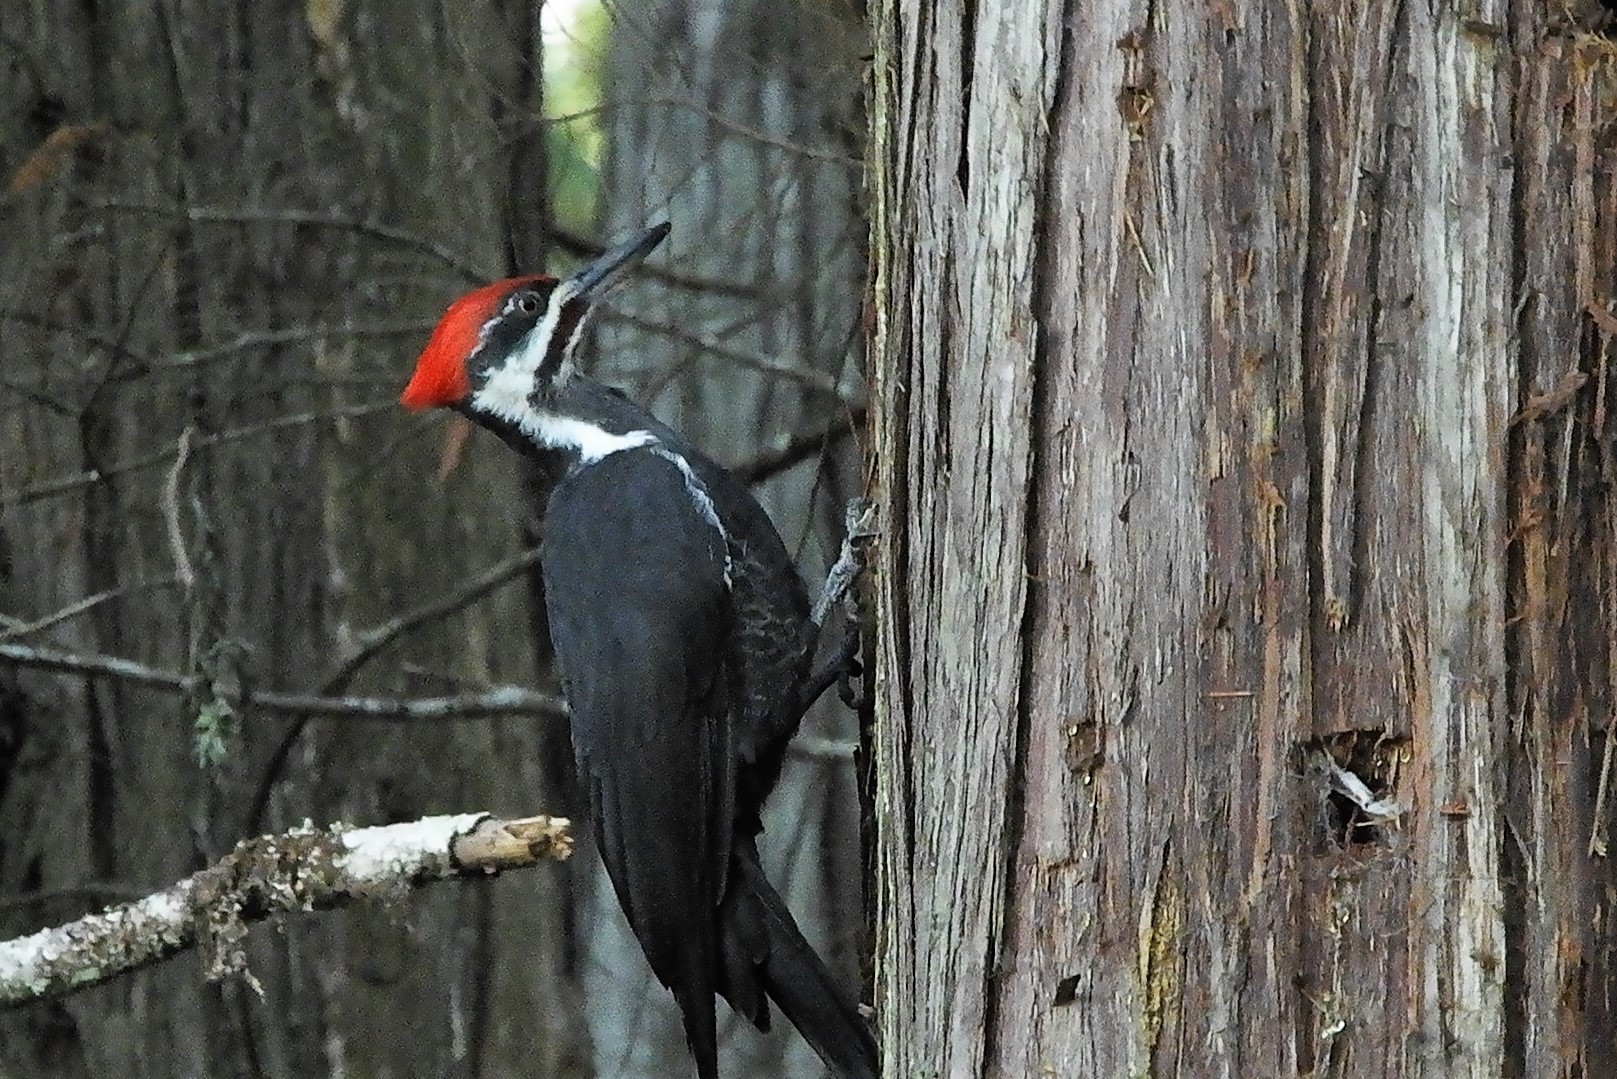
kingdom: Animalia
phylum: Chordata
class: Aves
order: Piciformes
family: Picidae
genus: Dryocopus
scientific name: Dryocopus pileatus
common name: Pileated woodpecker
